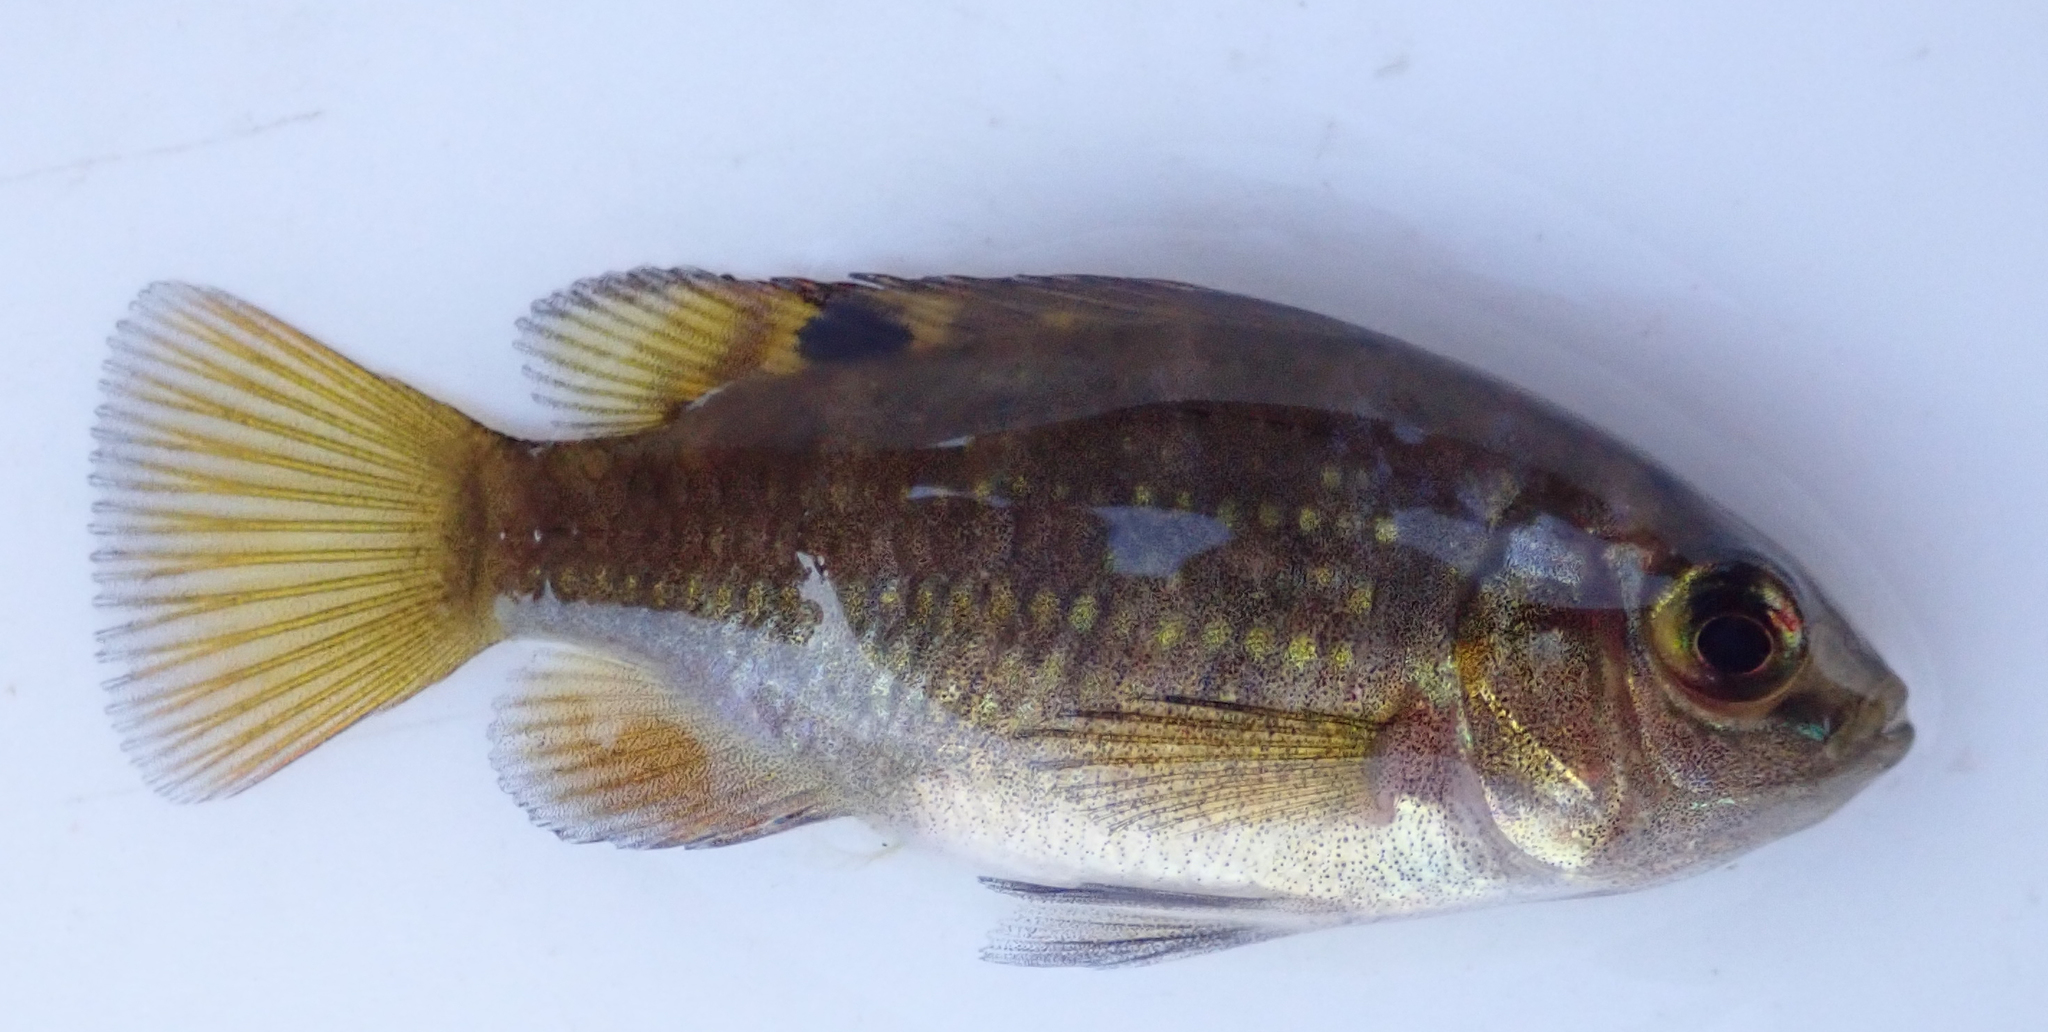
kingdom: Animalia
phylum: Chordata
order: Perciformes
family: Cichlidae
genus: Tilapia
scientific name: Tilapia sparrmanii
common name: Banded tilapia
